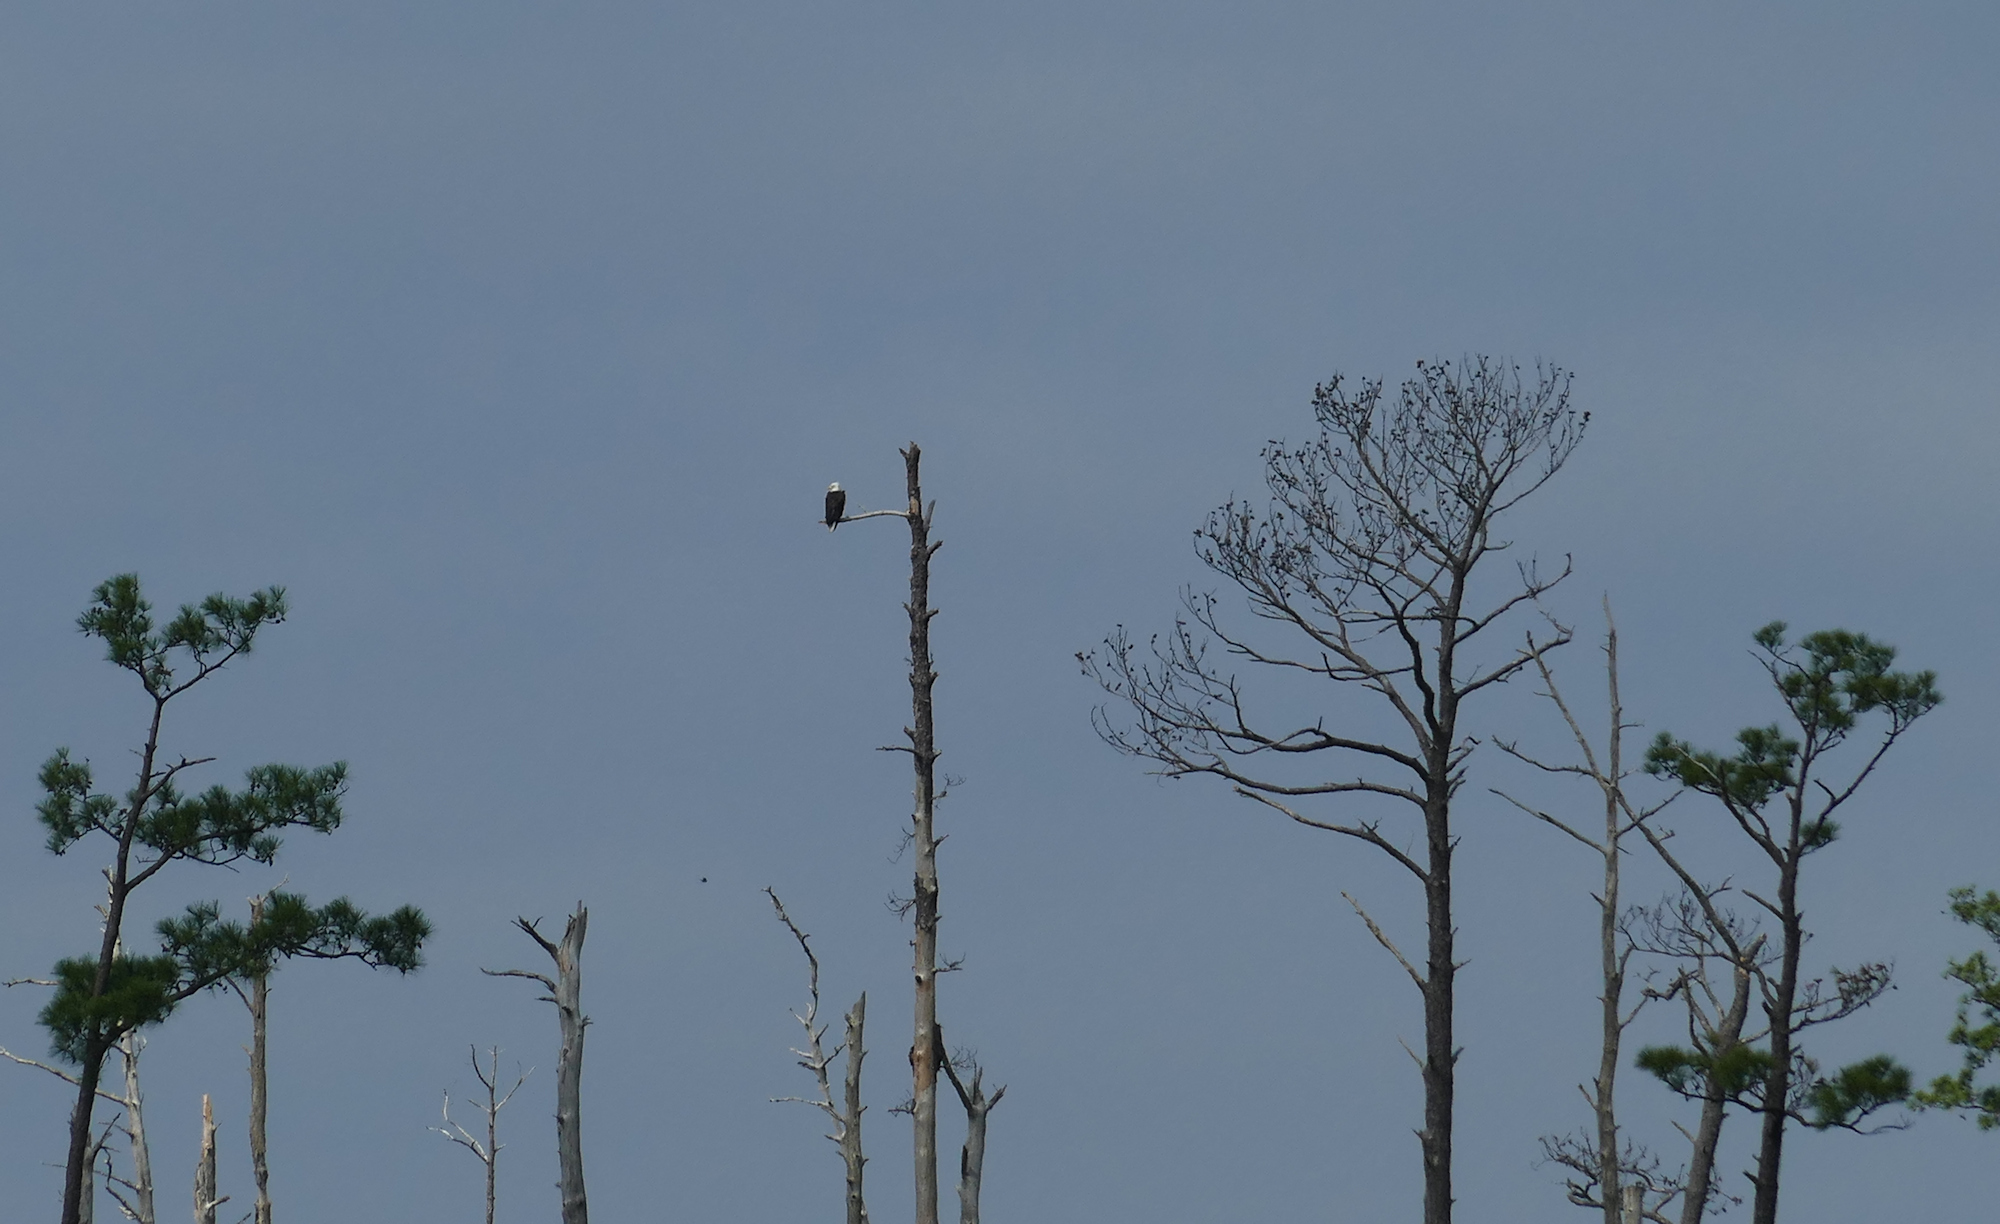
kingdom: Animalia
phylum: Chordata
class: Aves
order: Accipitriformes
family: Accipitridae
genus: Haliaeetus
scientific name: Haliaeetus leucocephalus
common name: Bald eagle
